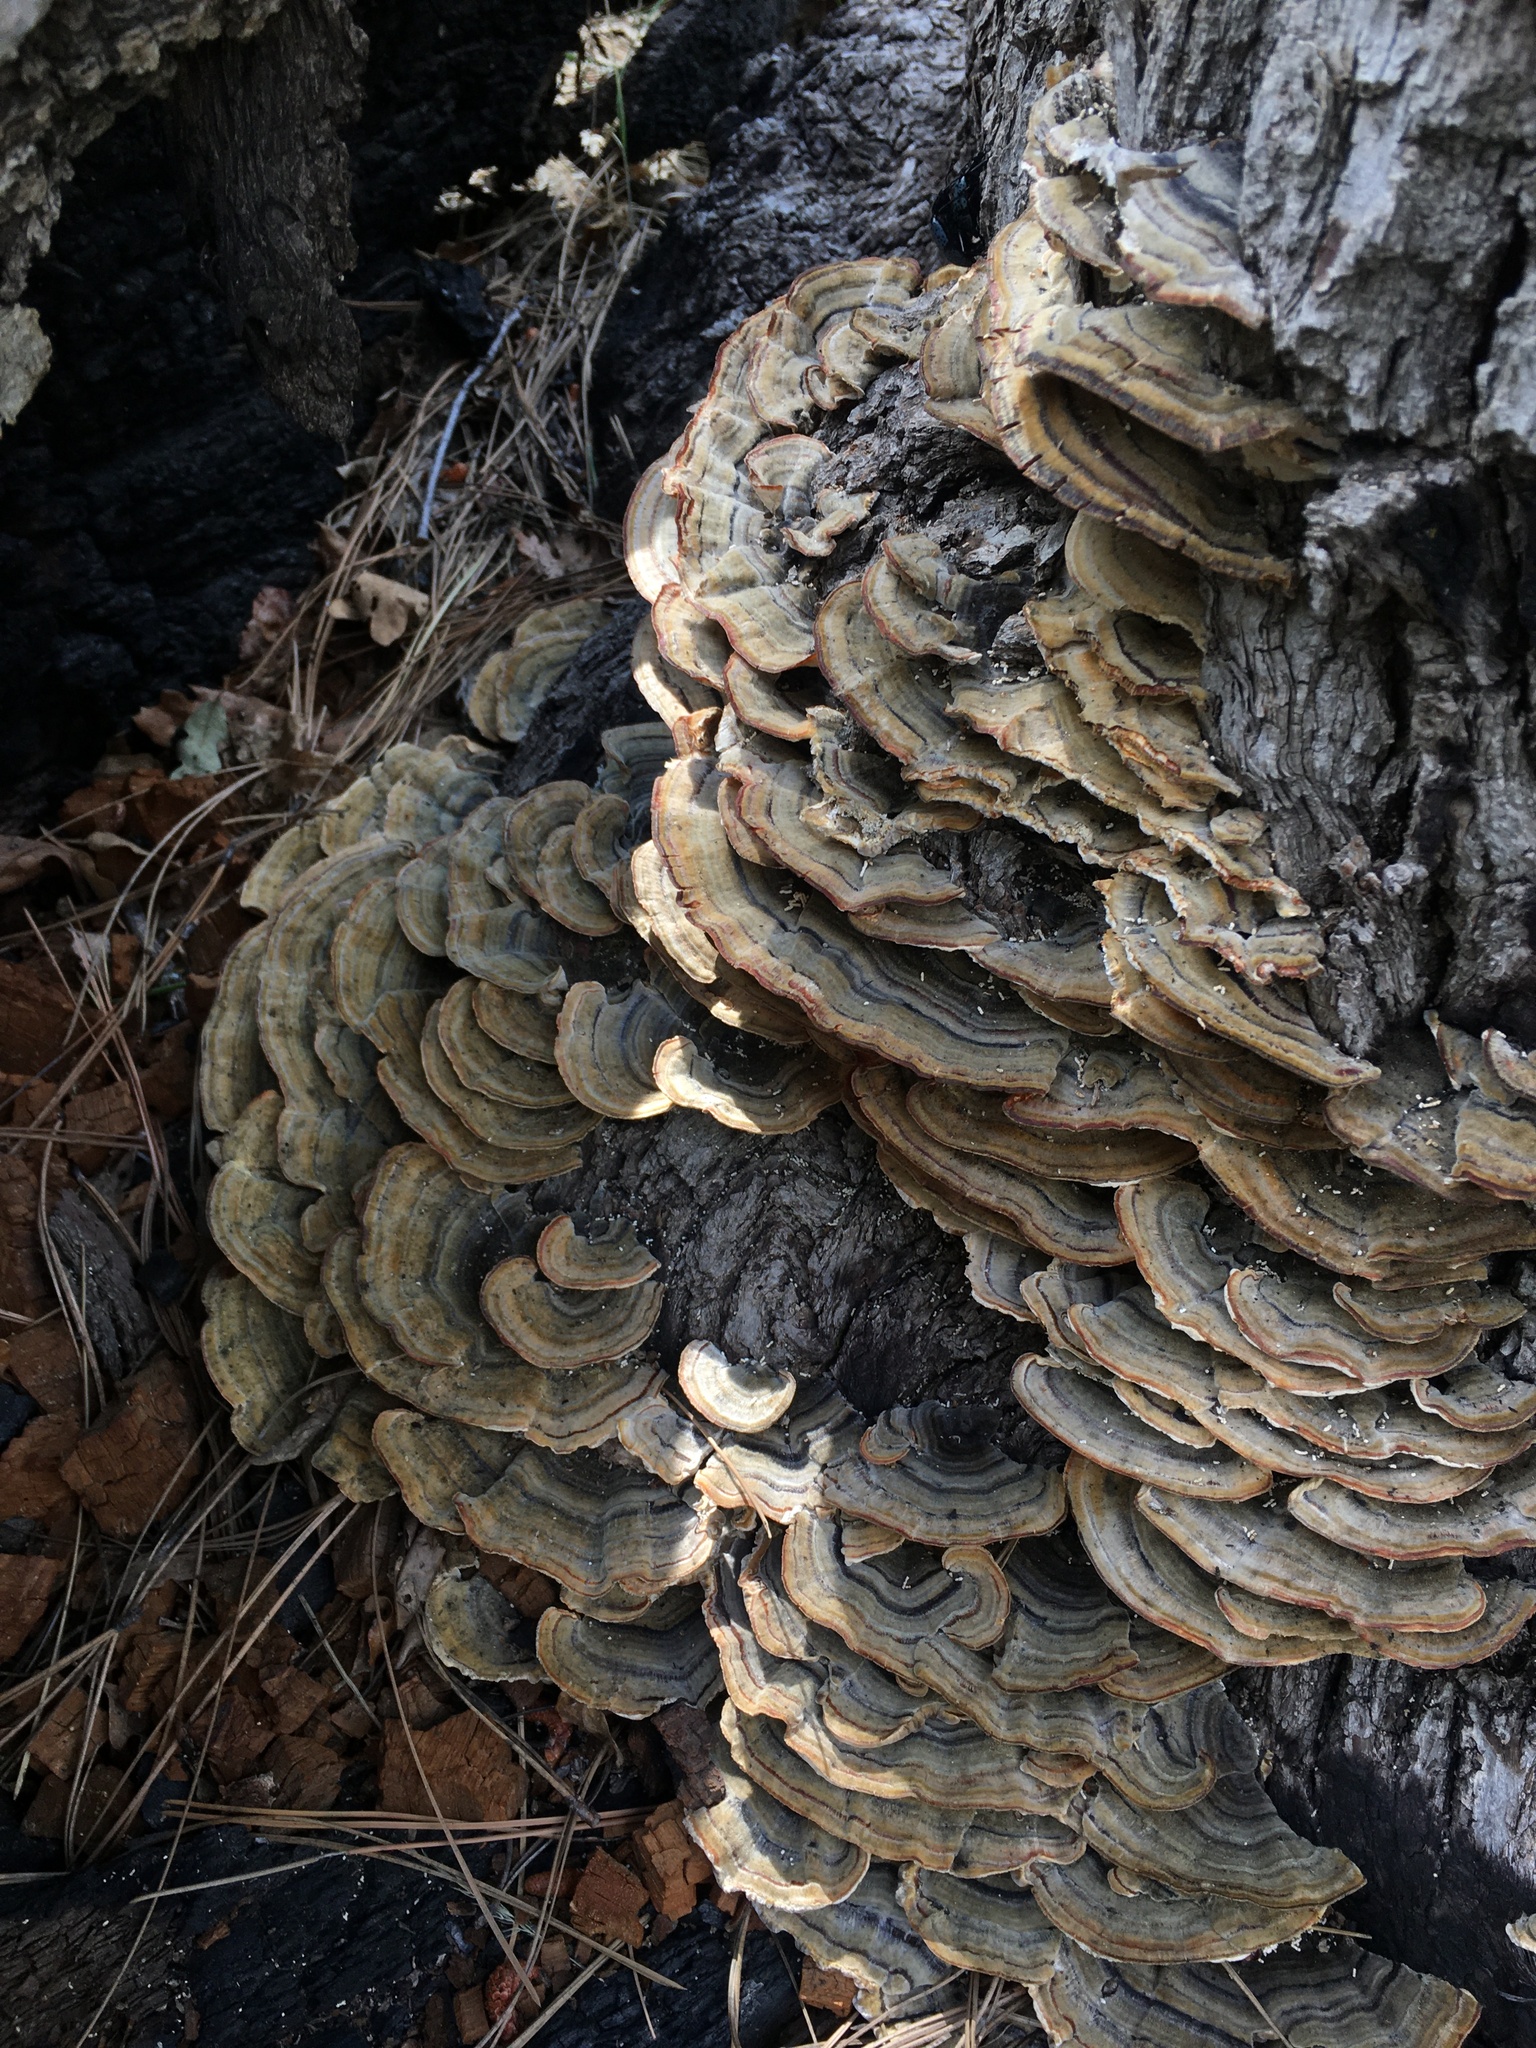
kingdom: Fungi
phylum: Basidiomycota
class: Agaricomycetes
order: Polyporales
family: Polyporaceae
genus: Trametes
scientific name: Trametes versicolor
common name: Turkeytail
